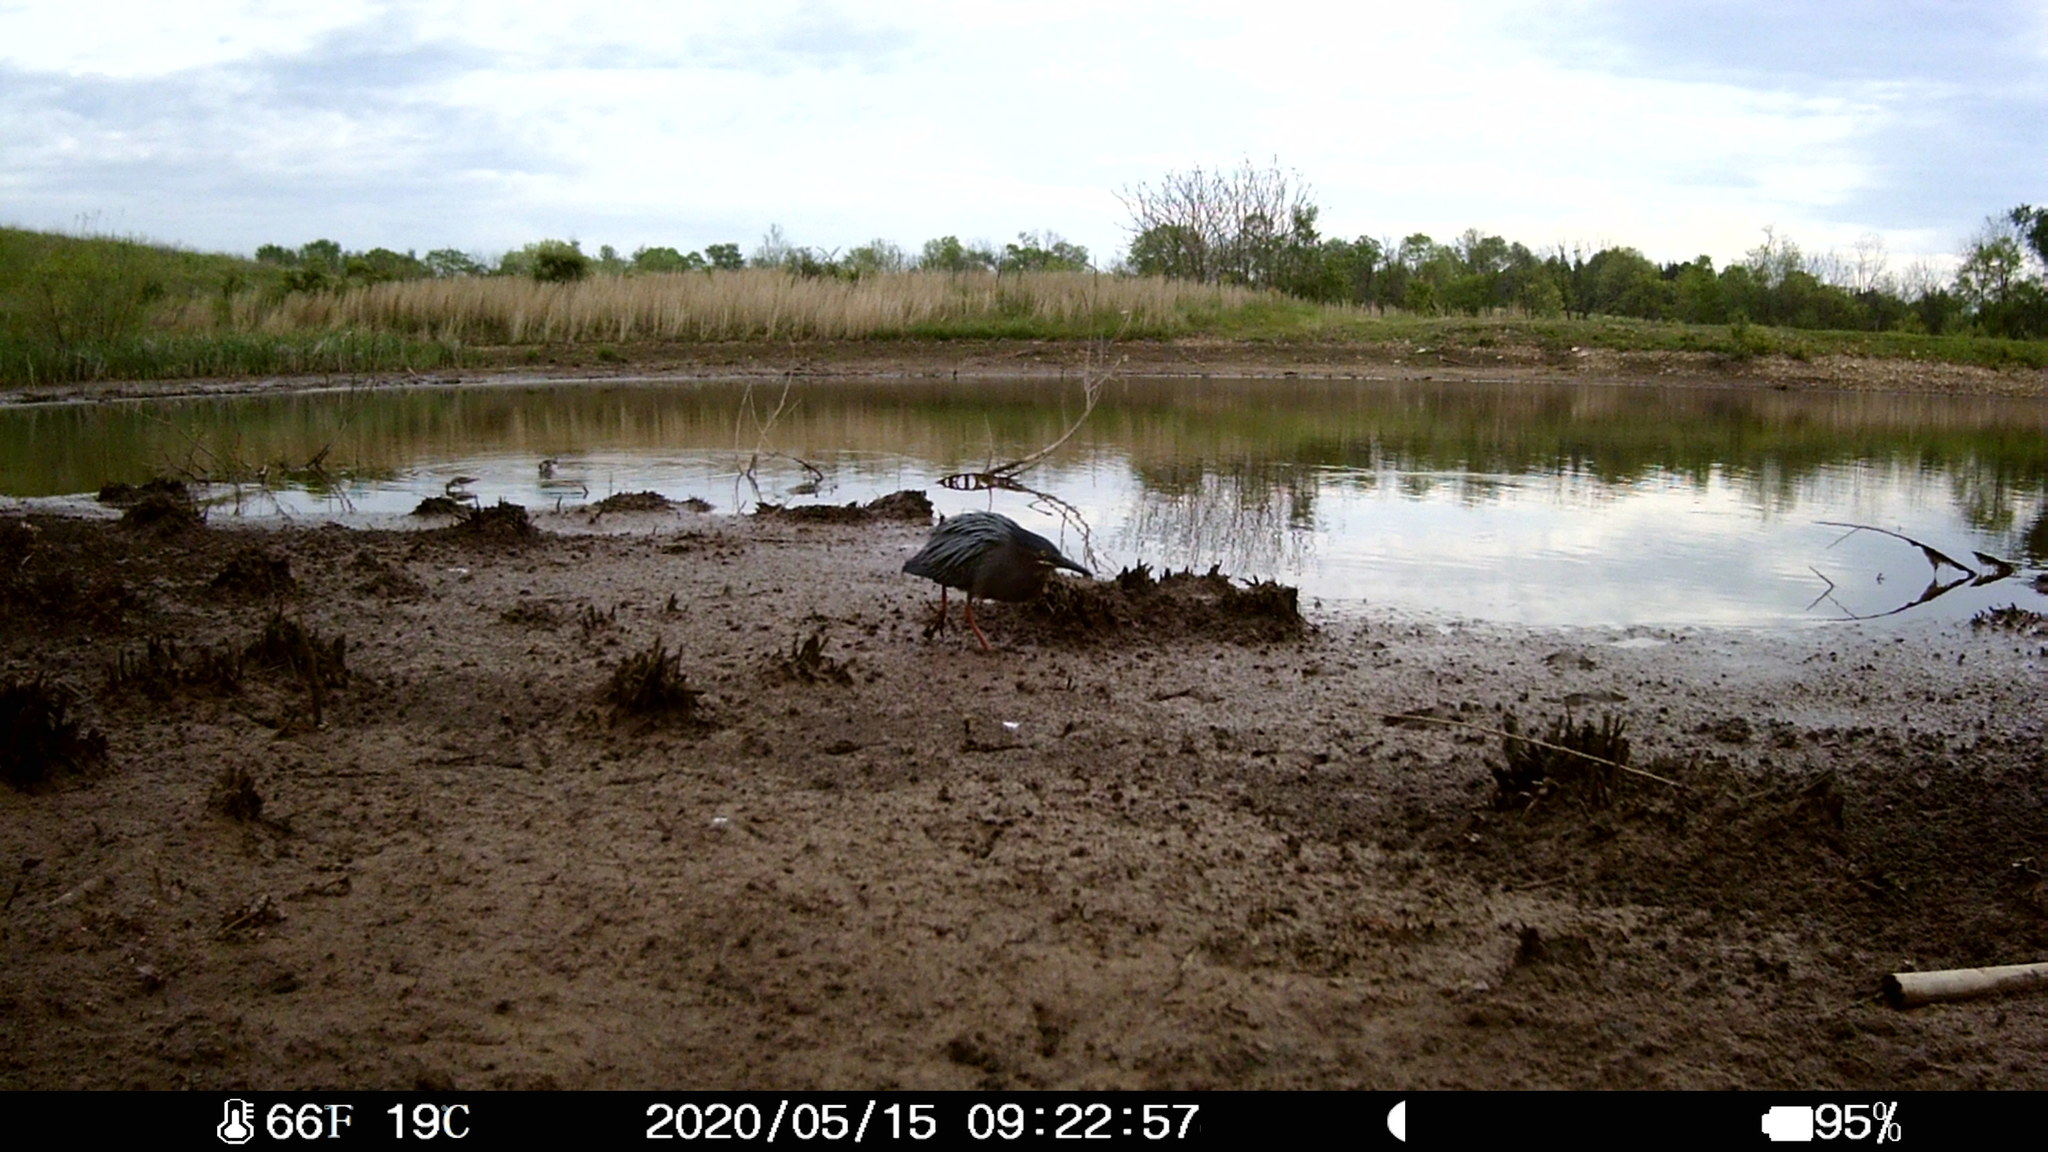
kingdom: Animalia
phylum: Chordata
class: Aves
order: Pelecaniformes
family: Ardeidae
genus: Butorides
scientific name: Butorides virescens
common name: Green heron
